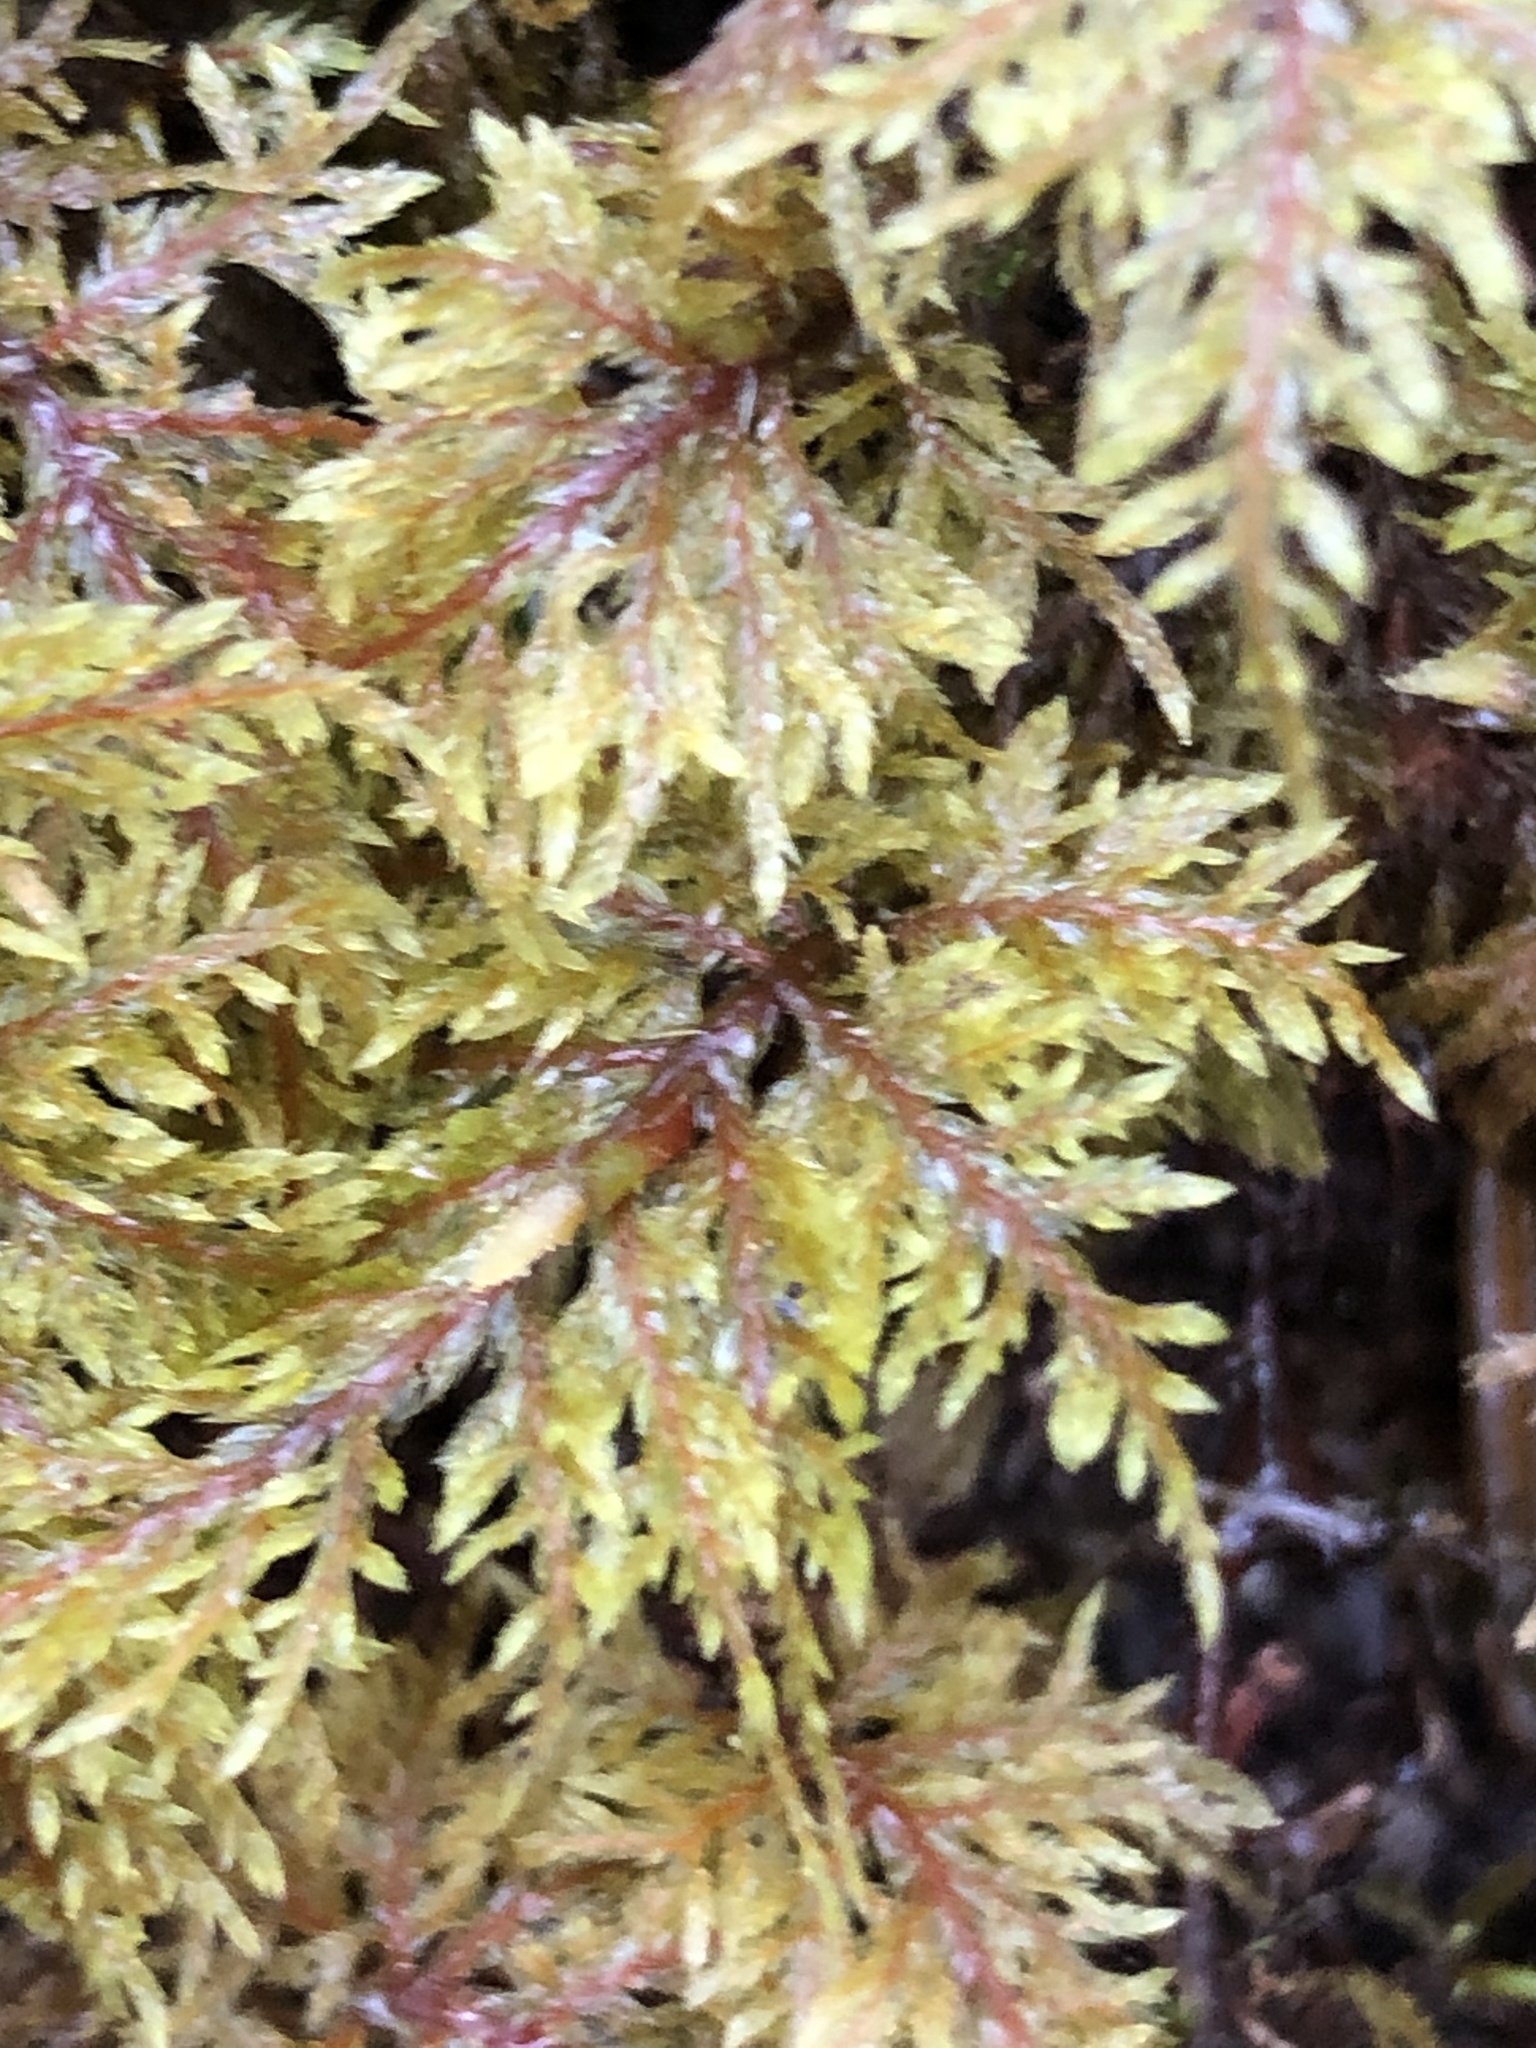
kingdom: Plantae
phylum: Bryophyta
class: Bryopsida
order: Hypnales
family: Hylocomiaceae
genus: Hylocomium
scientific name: Hylocomium splendens
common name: Stairstep moss
